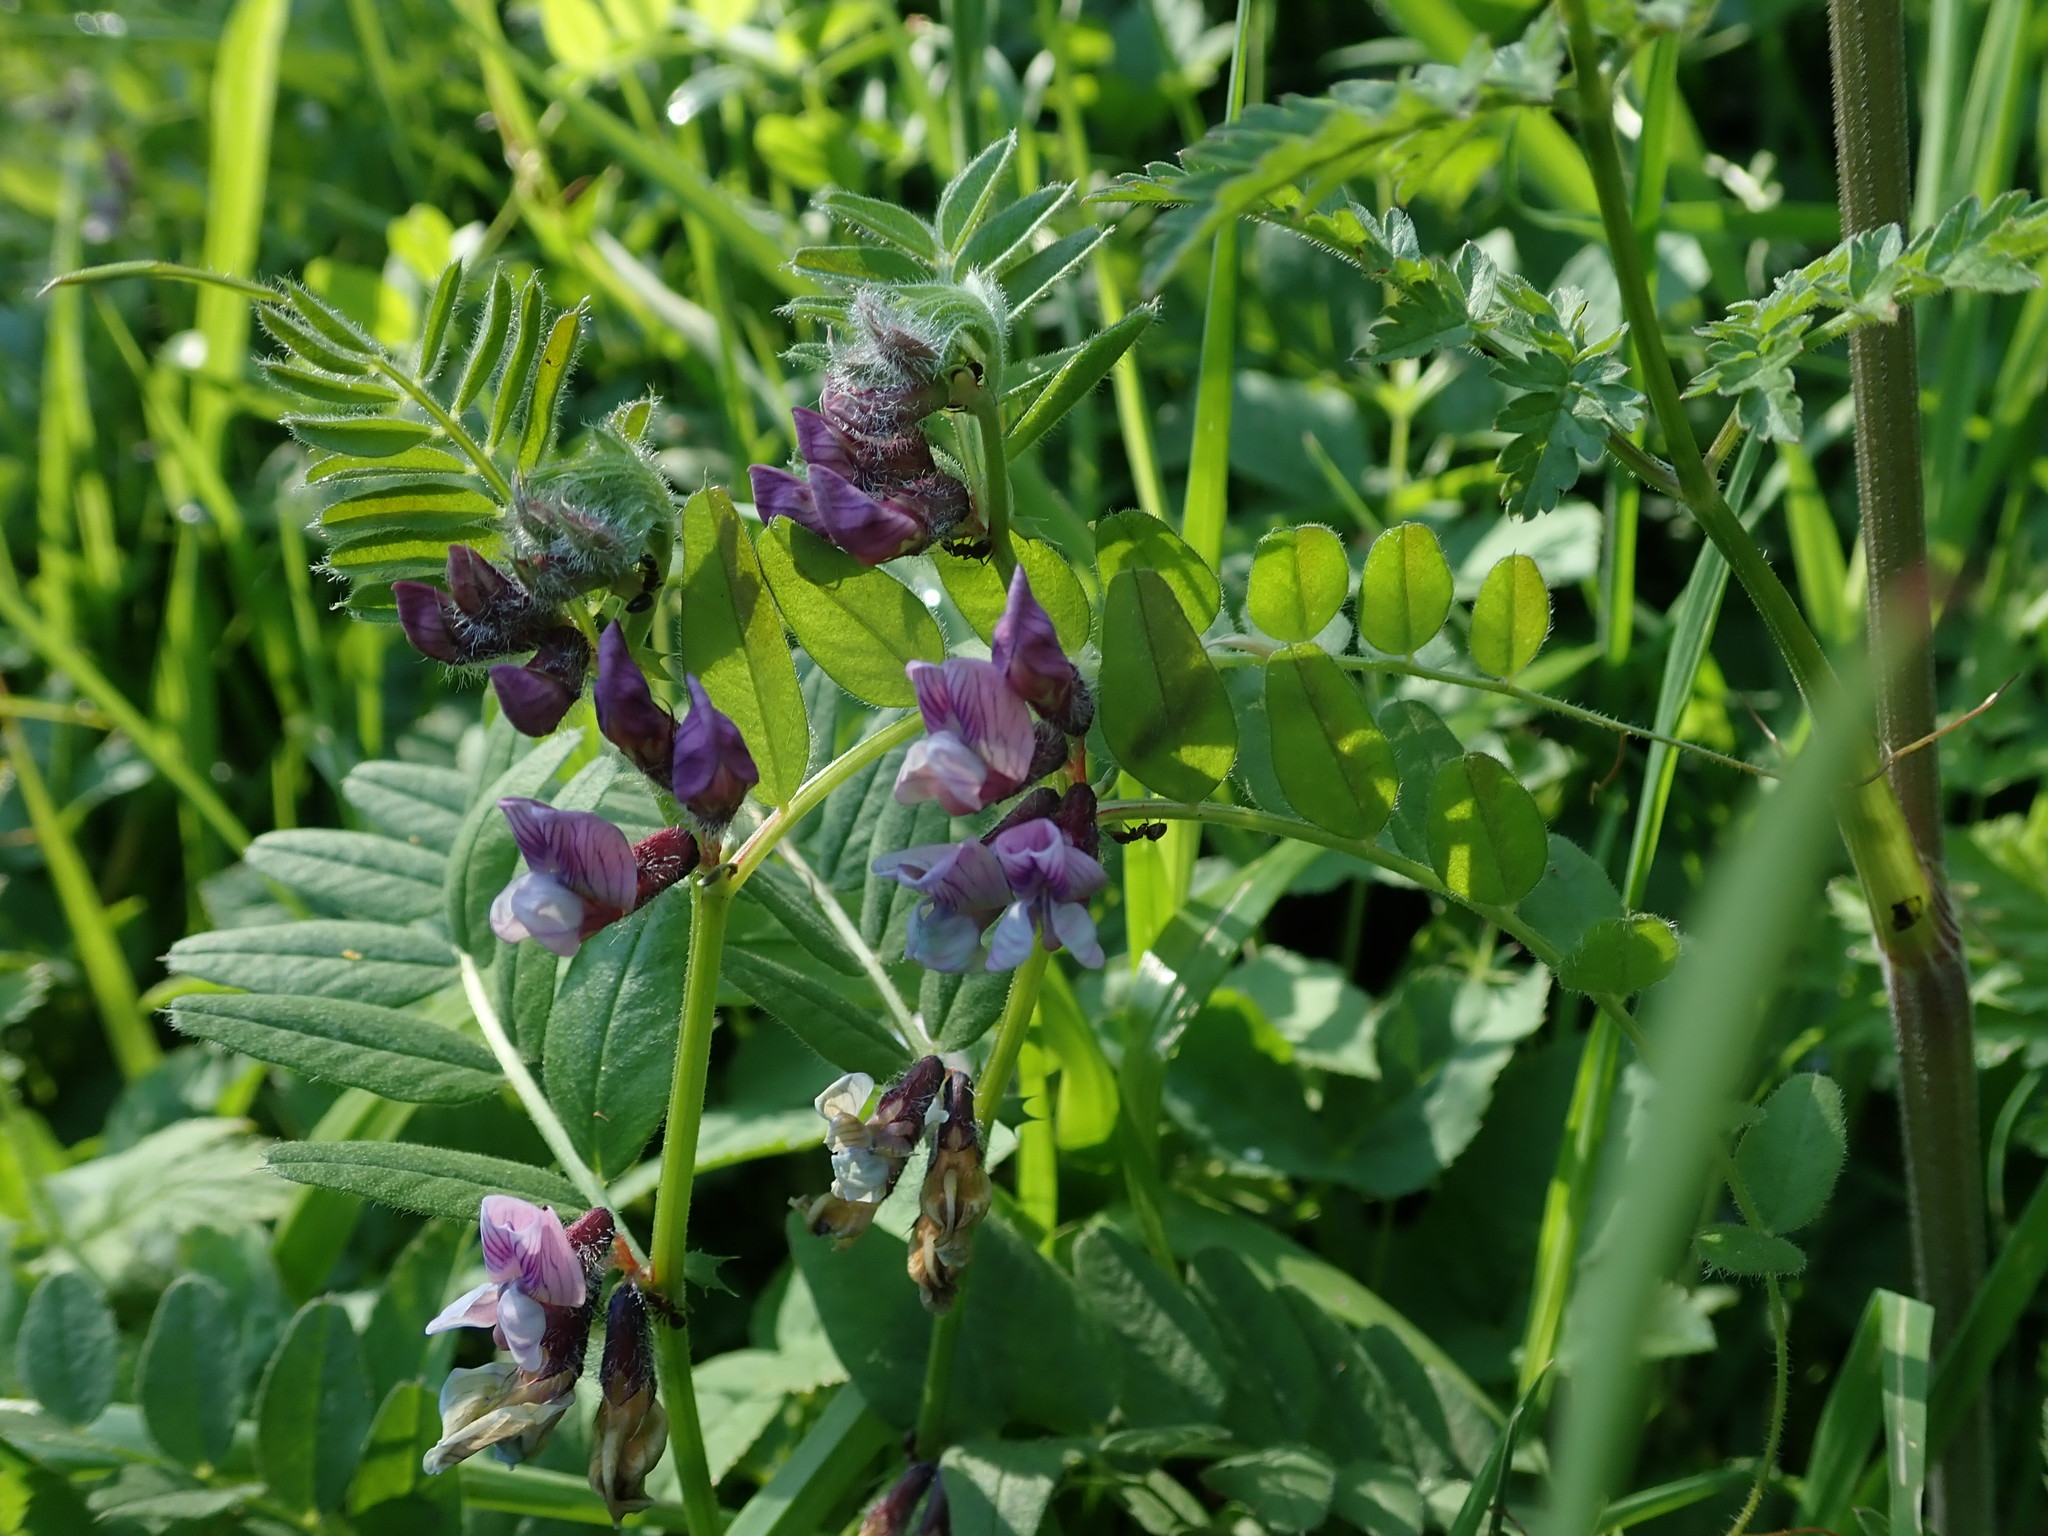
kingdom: Plantae
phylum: Tracheophyta
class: Magnoliopsida
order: Fabales
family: Fabaceae
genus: Vicia
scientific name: Vicia sepium
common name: Bush vetch
